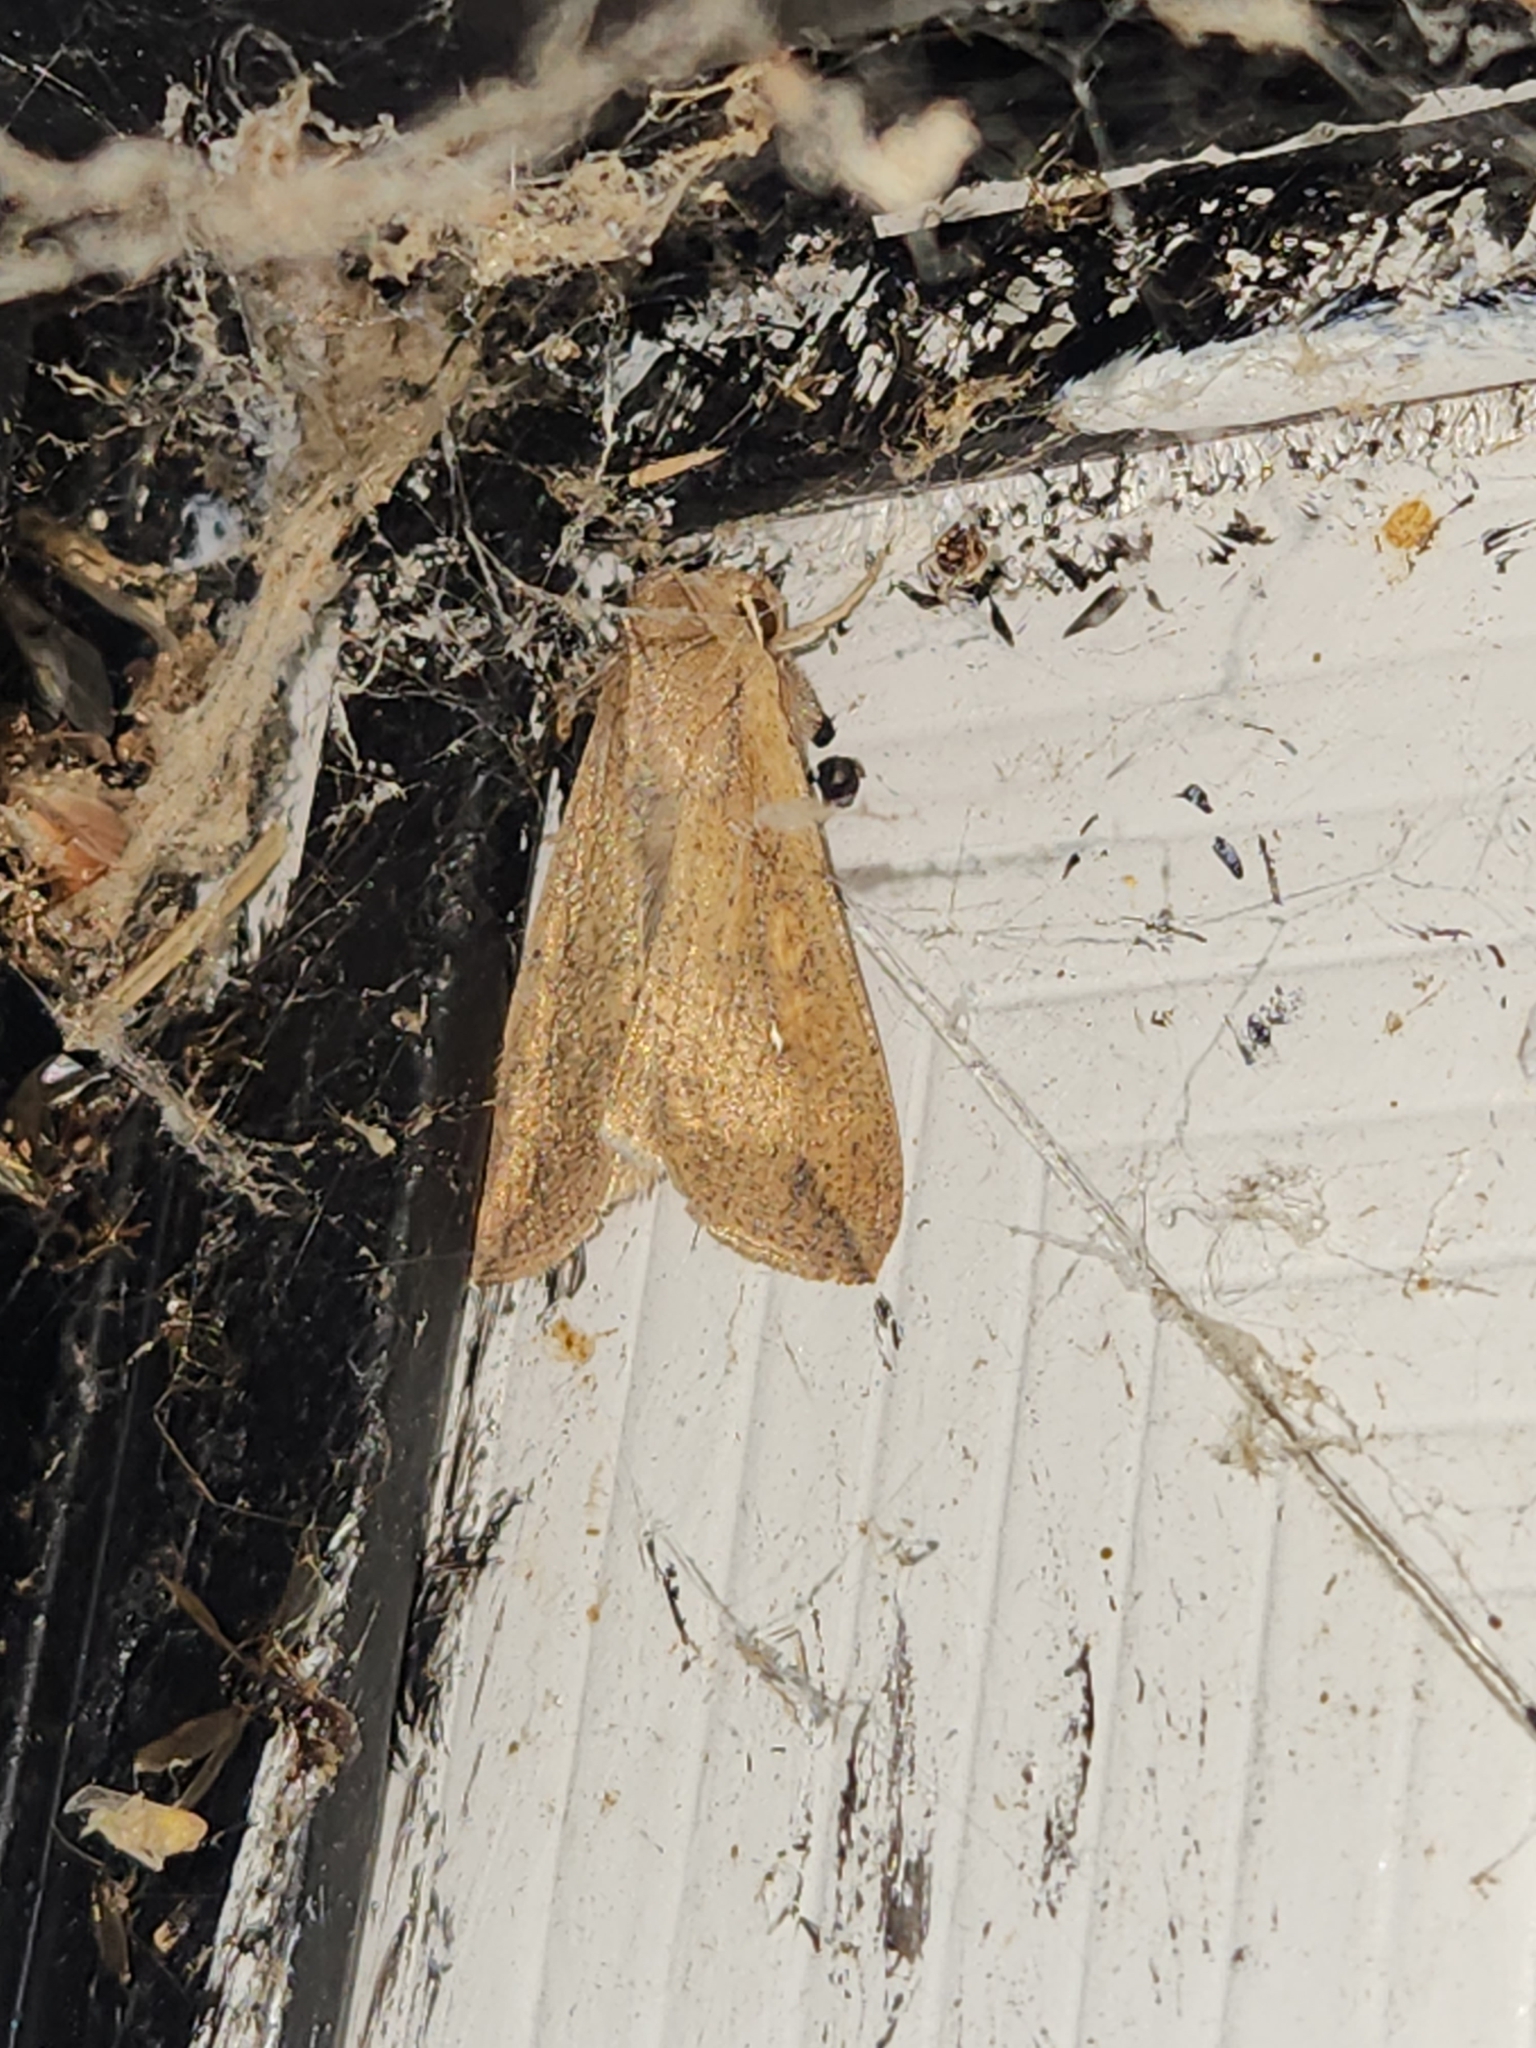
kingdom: Animalia
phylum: Arthropoda
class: Insecta
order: Lepidoptera
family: Noctuidae
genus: Mythimna
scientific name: Mythimna unipuncta
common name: White-speck
